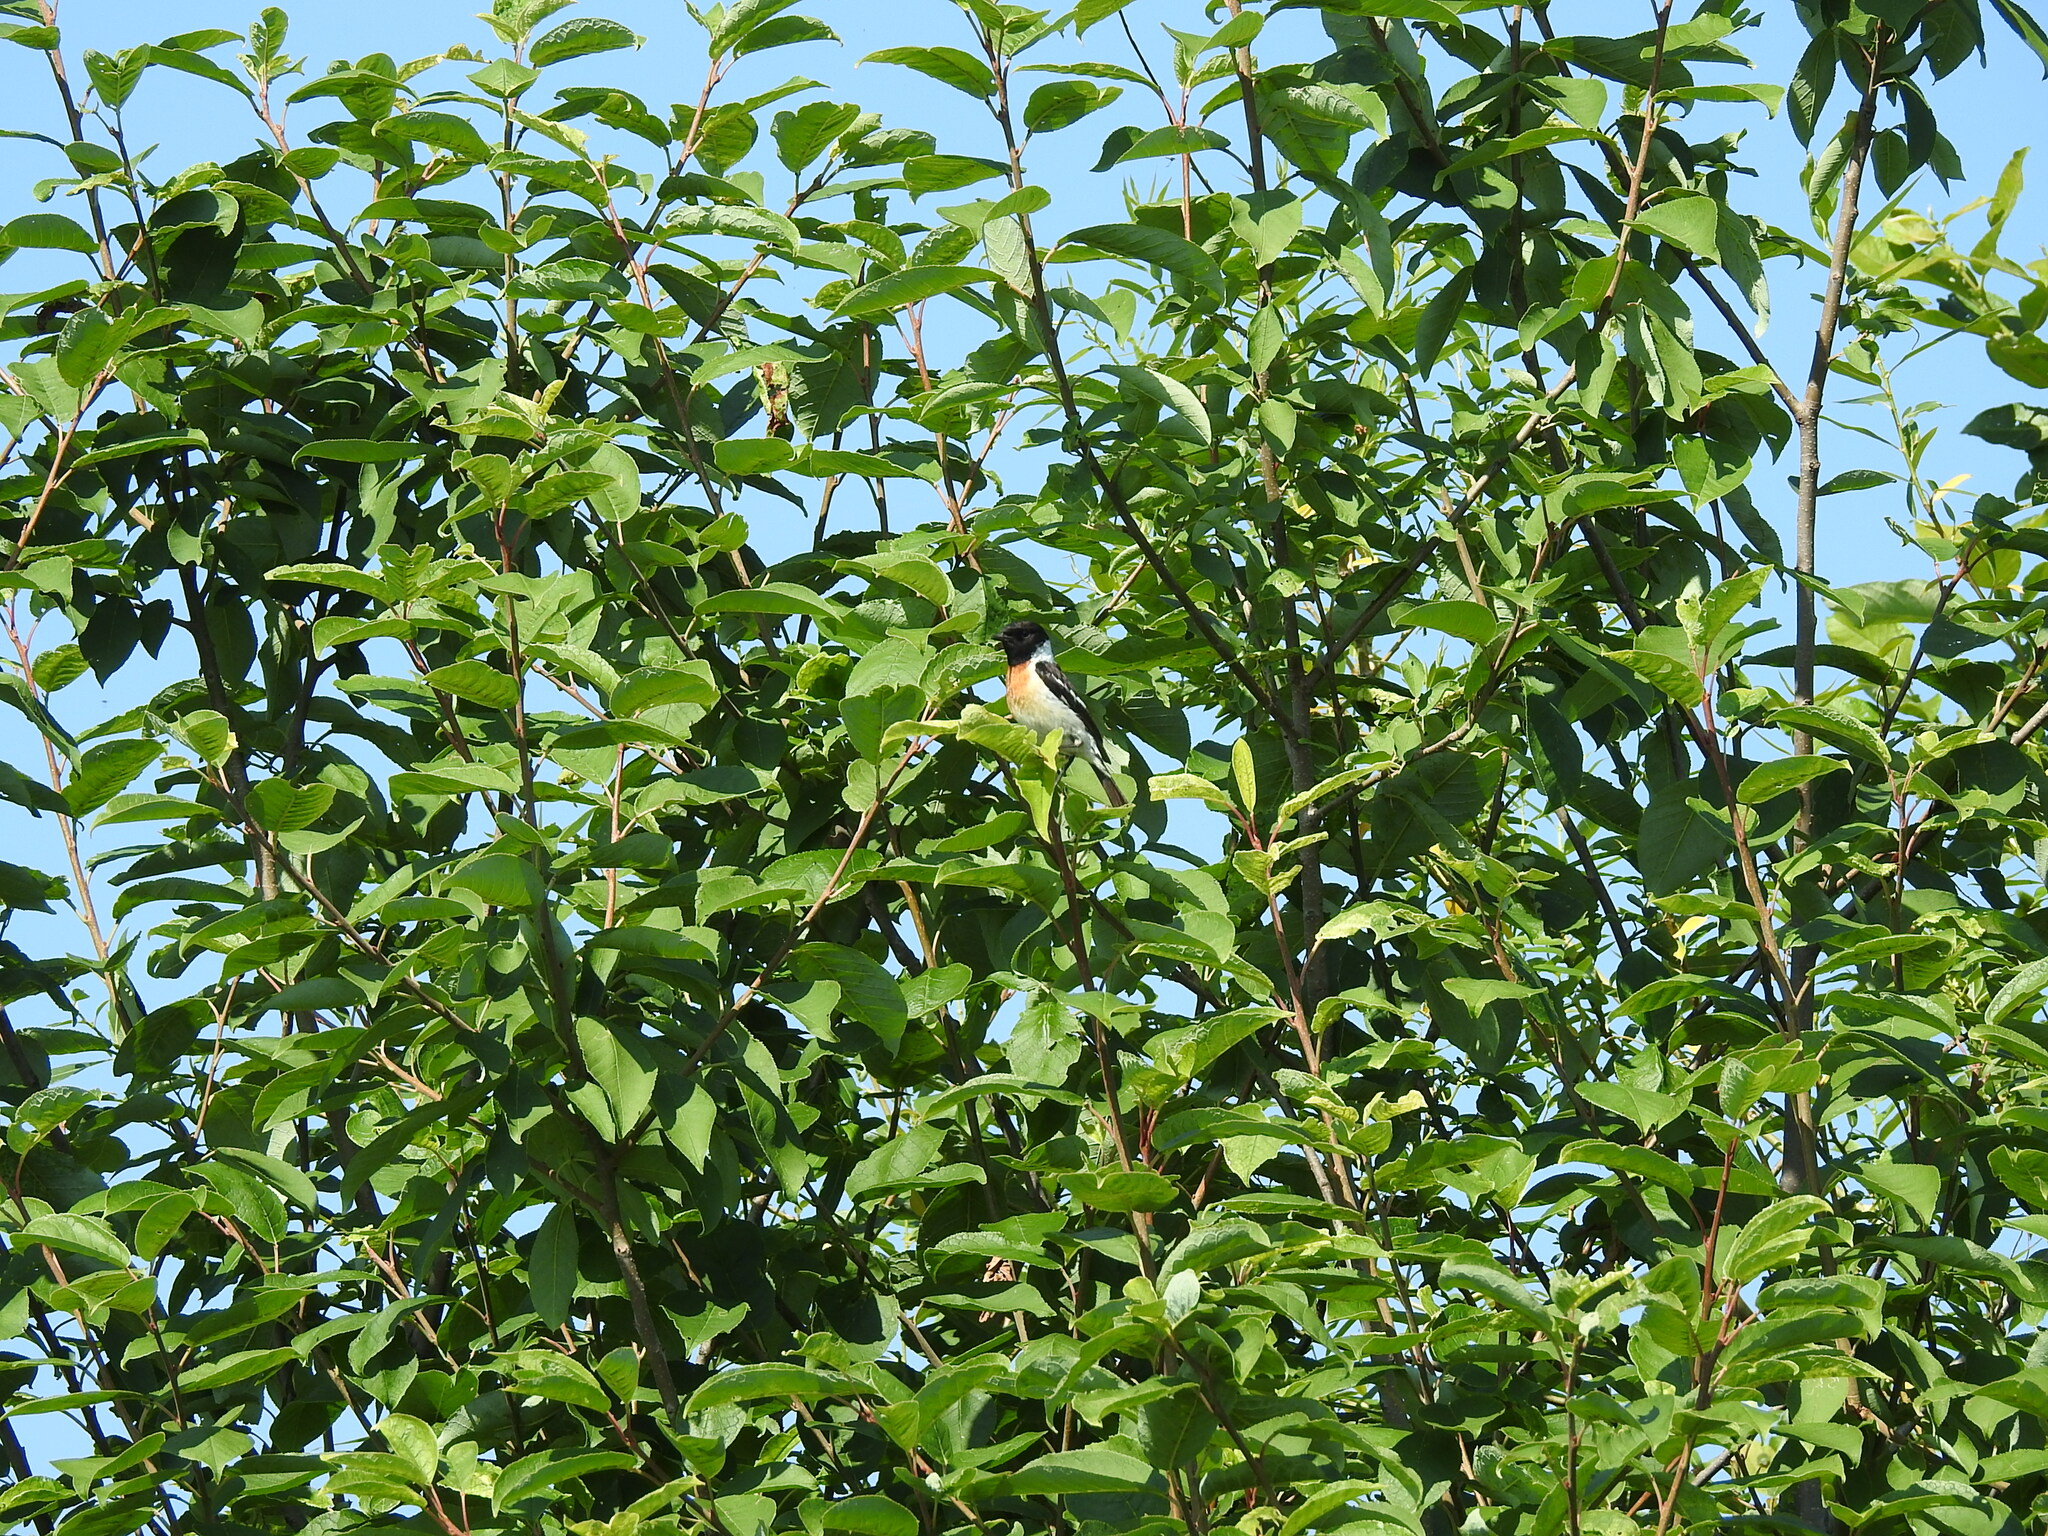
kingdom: Animalia
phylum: Chordata
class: Aves
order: Passeriformes
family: Muscicapidae
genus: Saxicola
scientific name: Saxicola maurus
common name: Siberian stonechat
